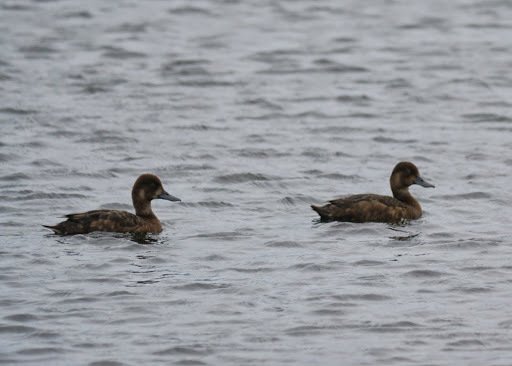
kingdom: Animalia
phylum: Chordata
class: Aves
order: Anseriformes
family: Anatidae
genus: Aythya
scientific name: Aythya marila
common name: Greater scaup
